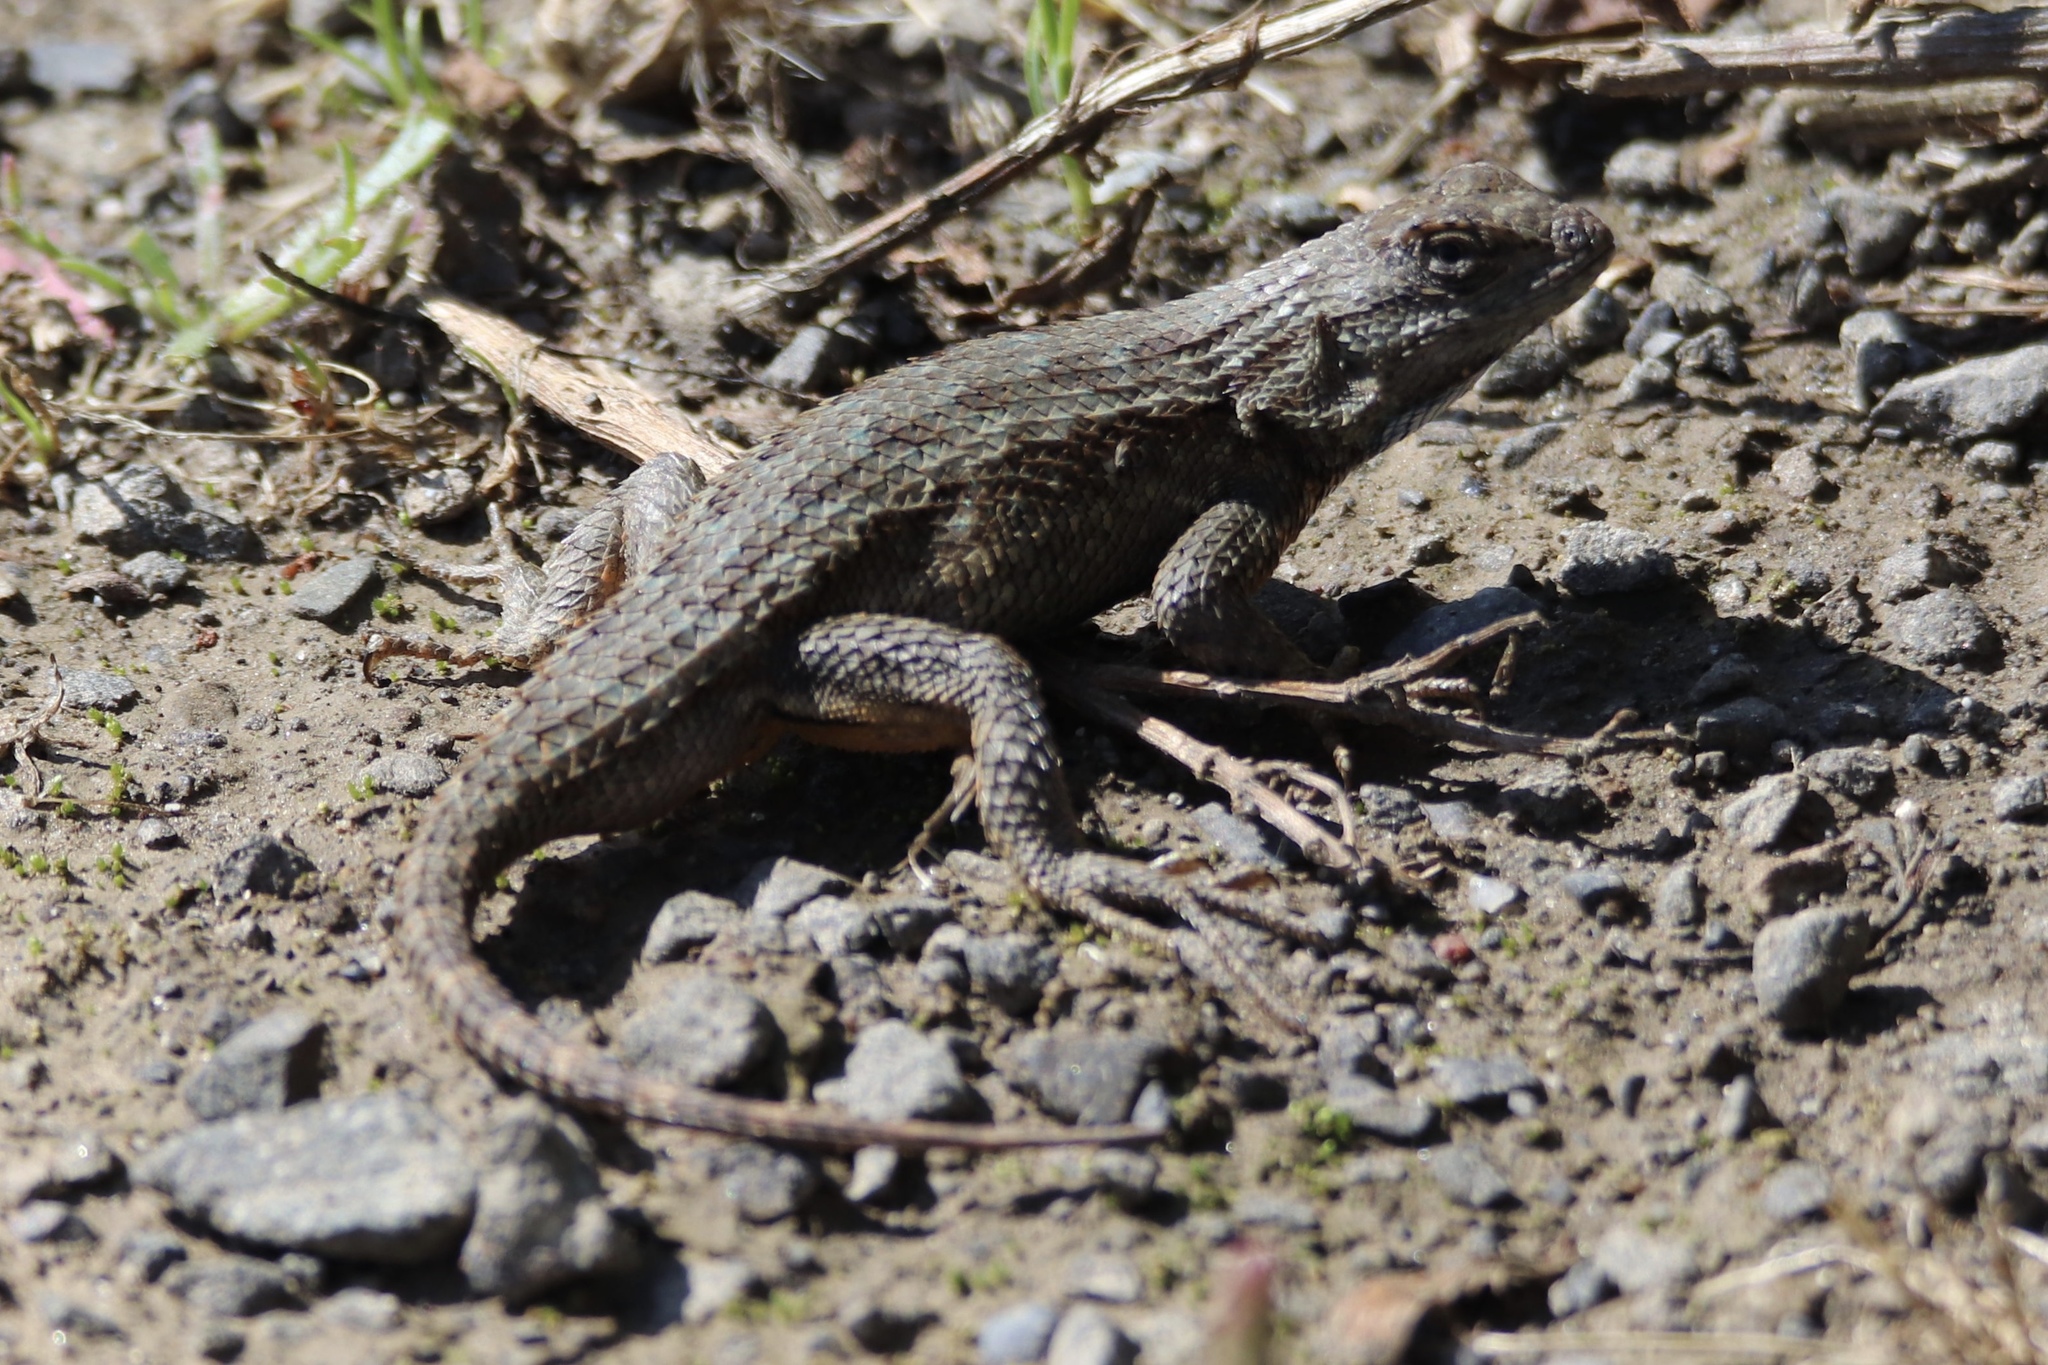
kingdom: Animalia
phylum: Chordata
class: Squamata
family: Phrynosomatidae
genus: Sceloporus
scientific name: Sceloporus occidentalis
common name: Western fence lizard
